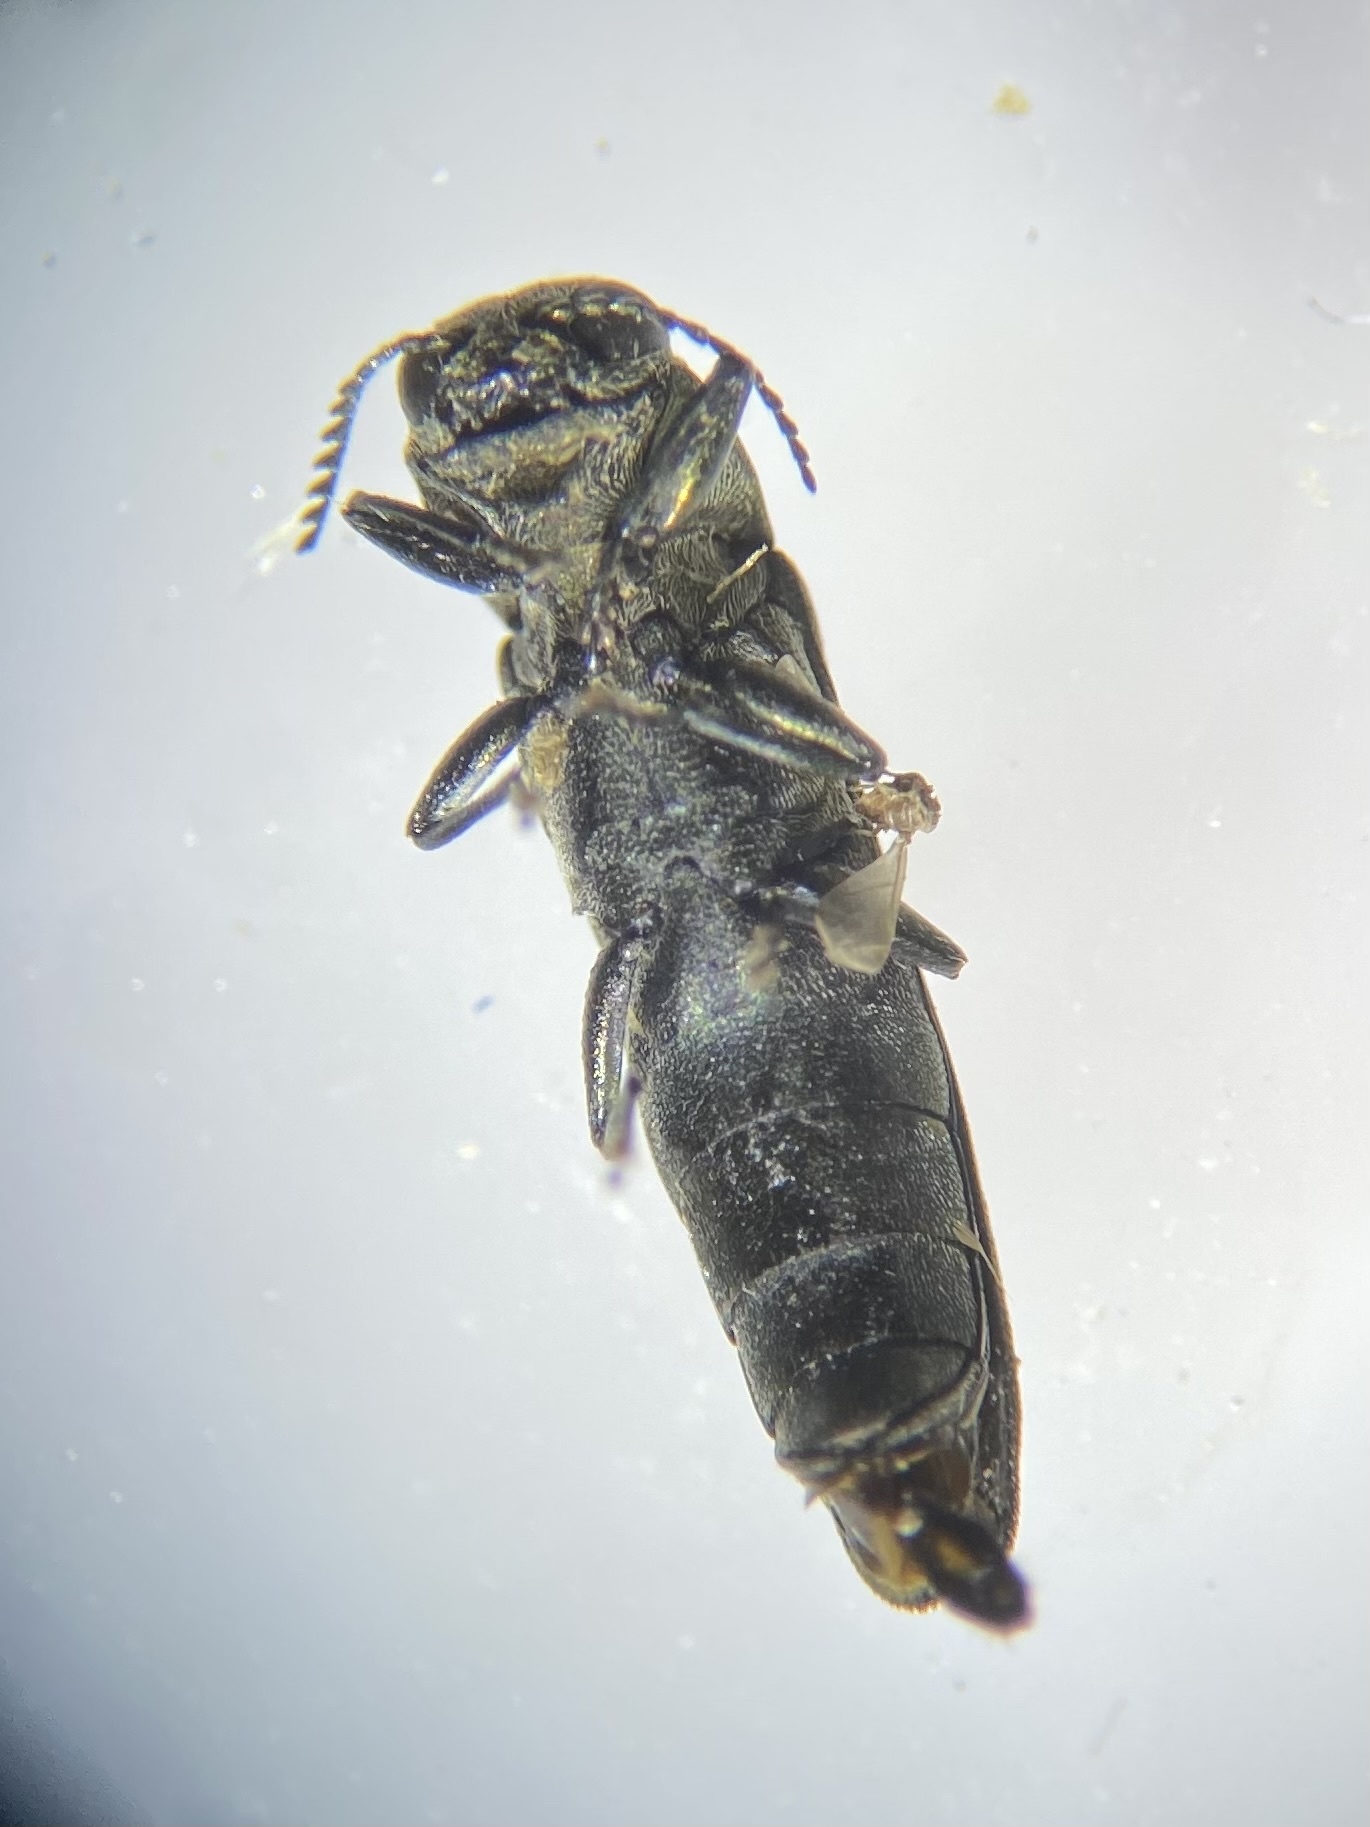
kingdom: Animalia
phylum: Arthropoda
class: Insecta
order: Coleoptera
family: Buprestidae
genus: Agrilus
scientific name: Agrilus arcuatus
